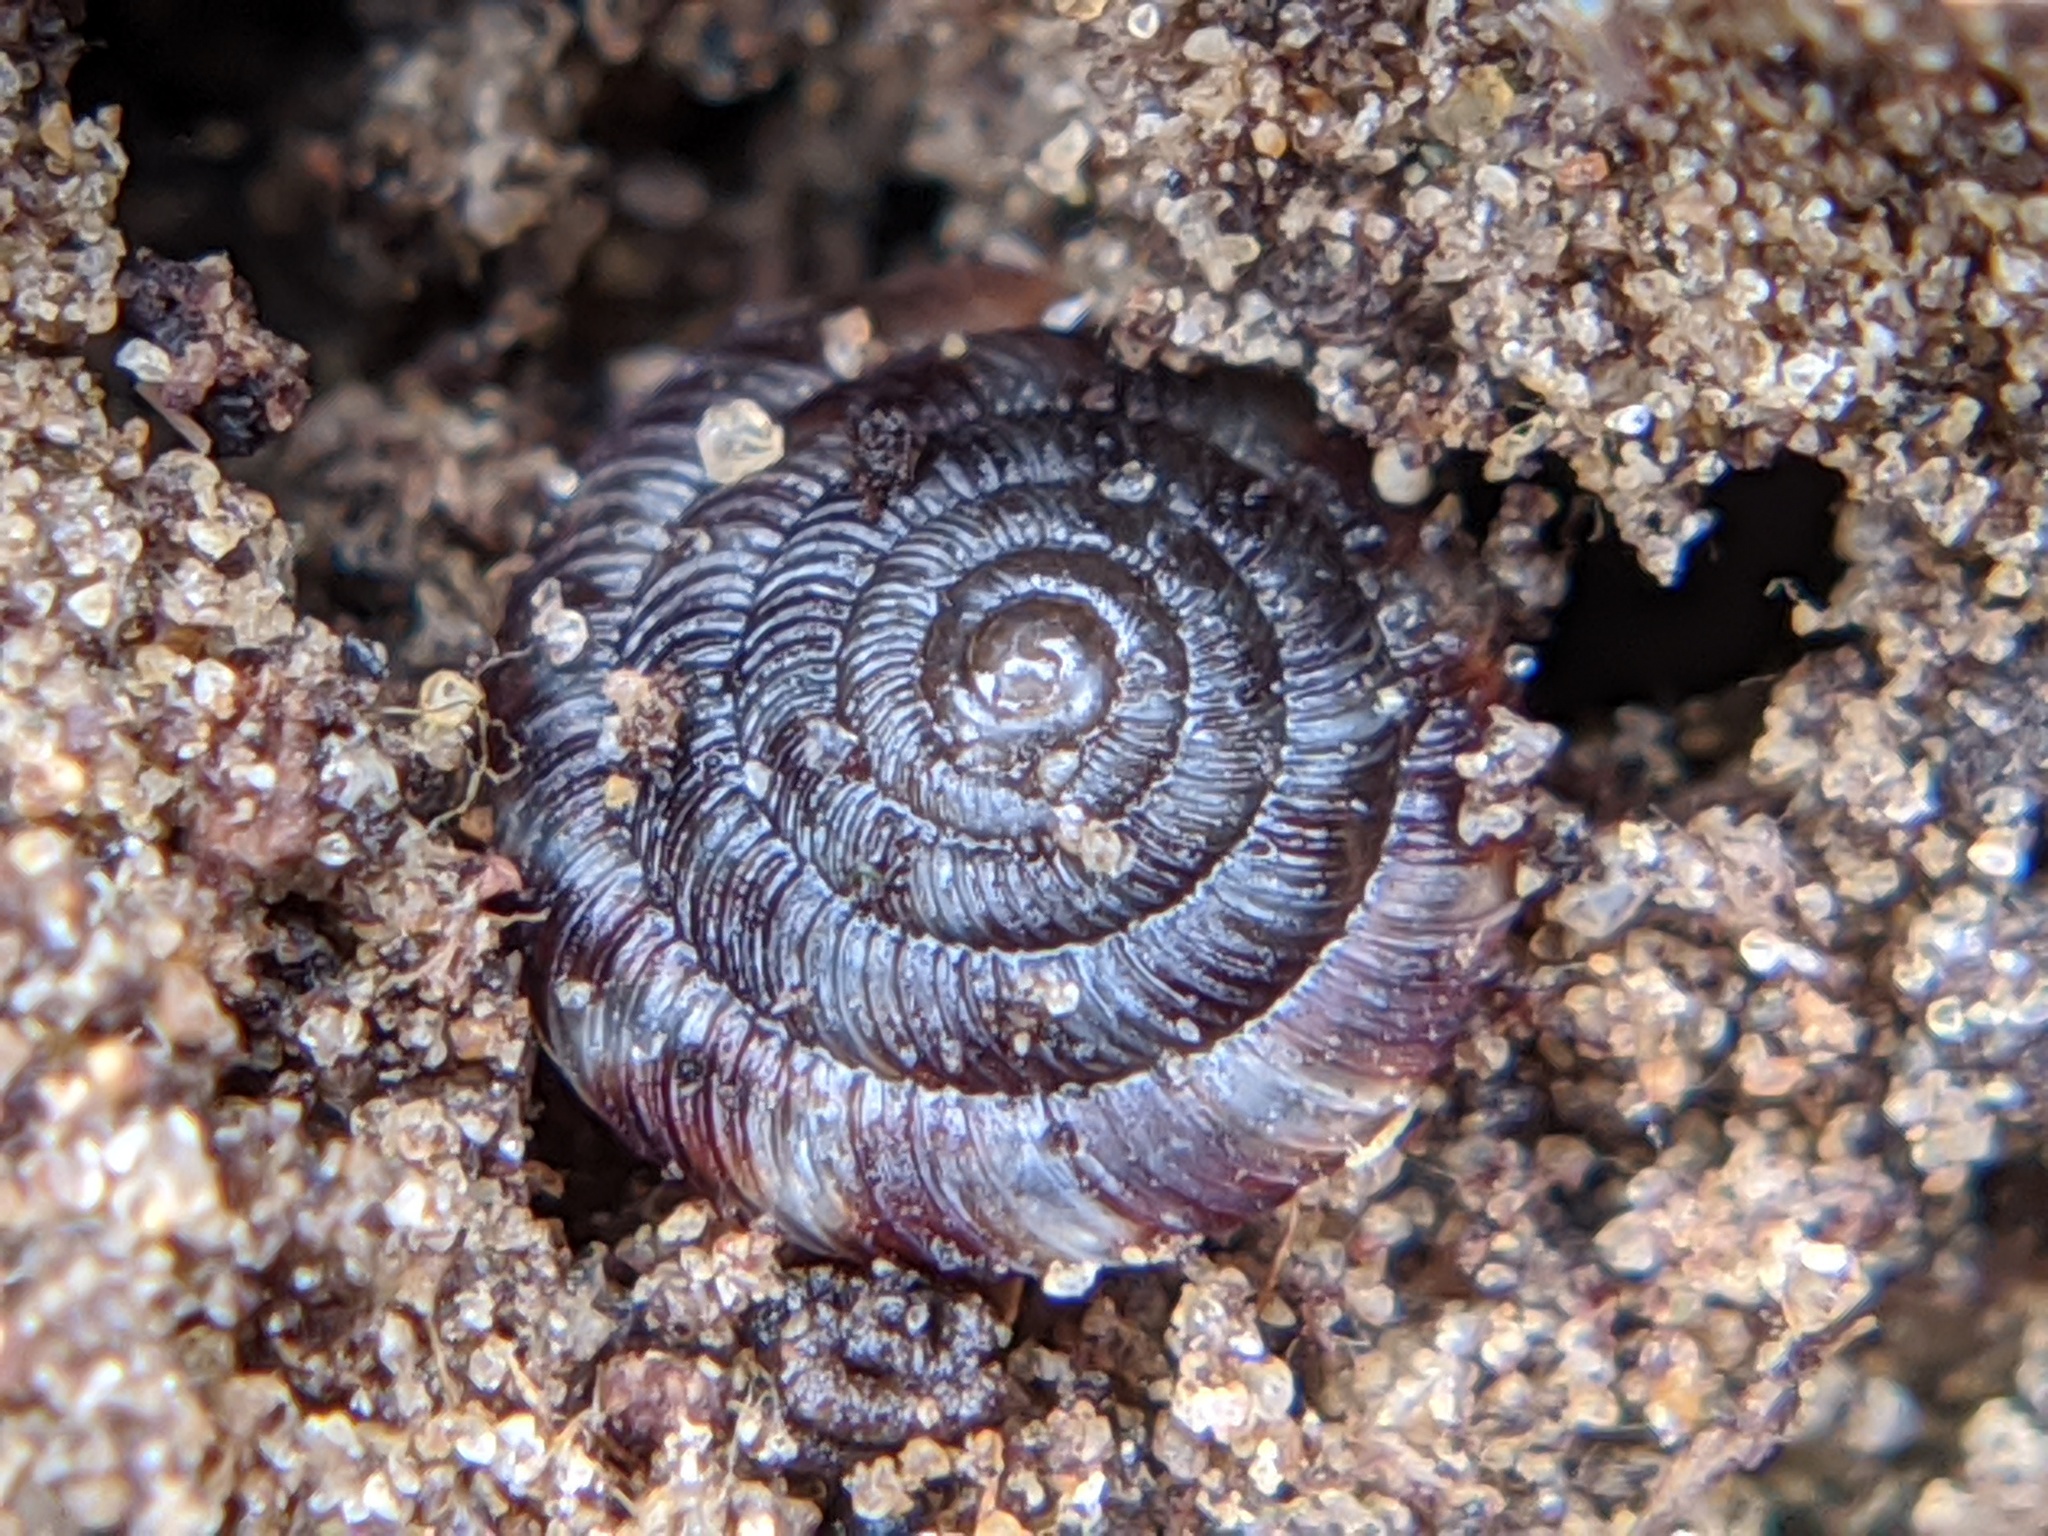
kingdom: Animalia
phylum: Mollusca
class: Gastropoda
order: Stylommatophora
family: Discidae
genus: Discus
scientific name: Discus rotundatus
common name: Rounded snail
